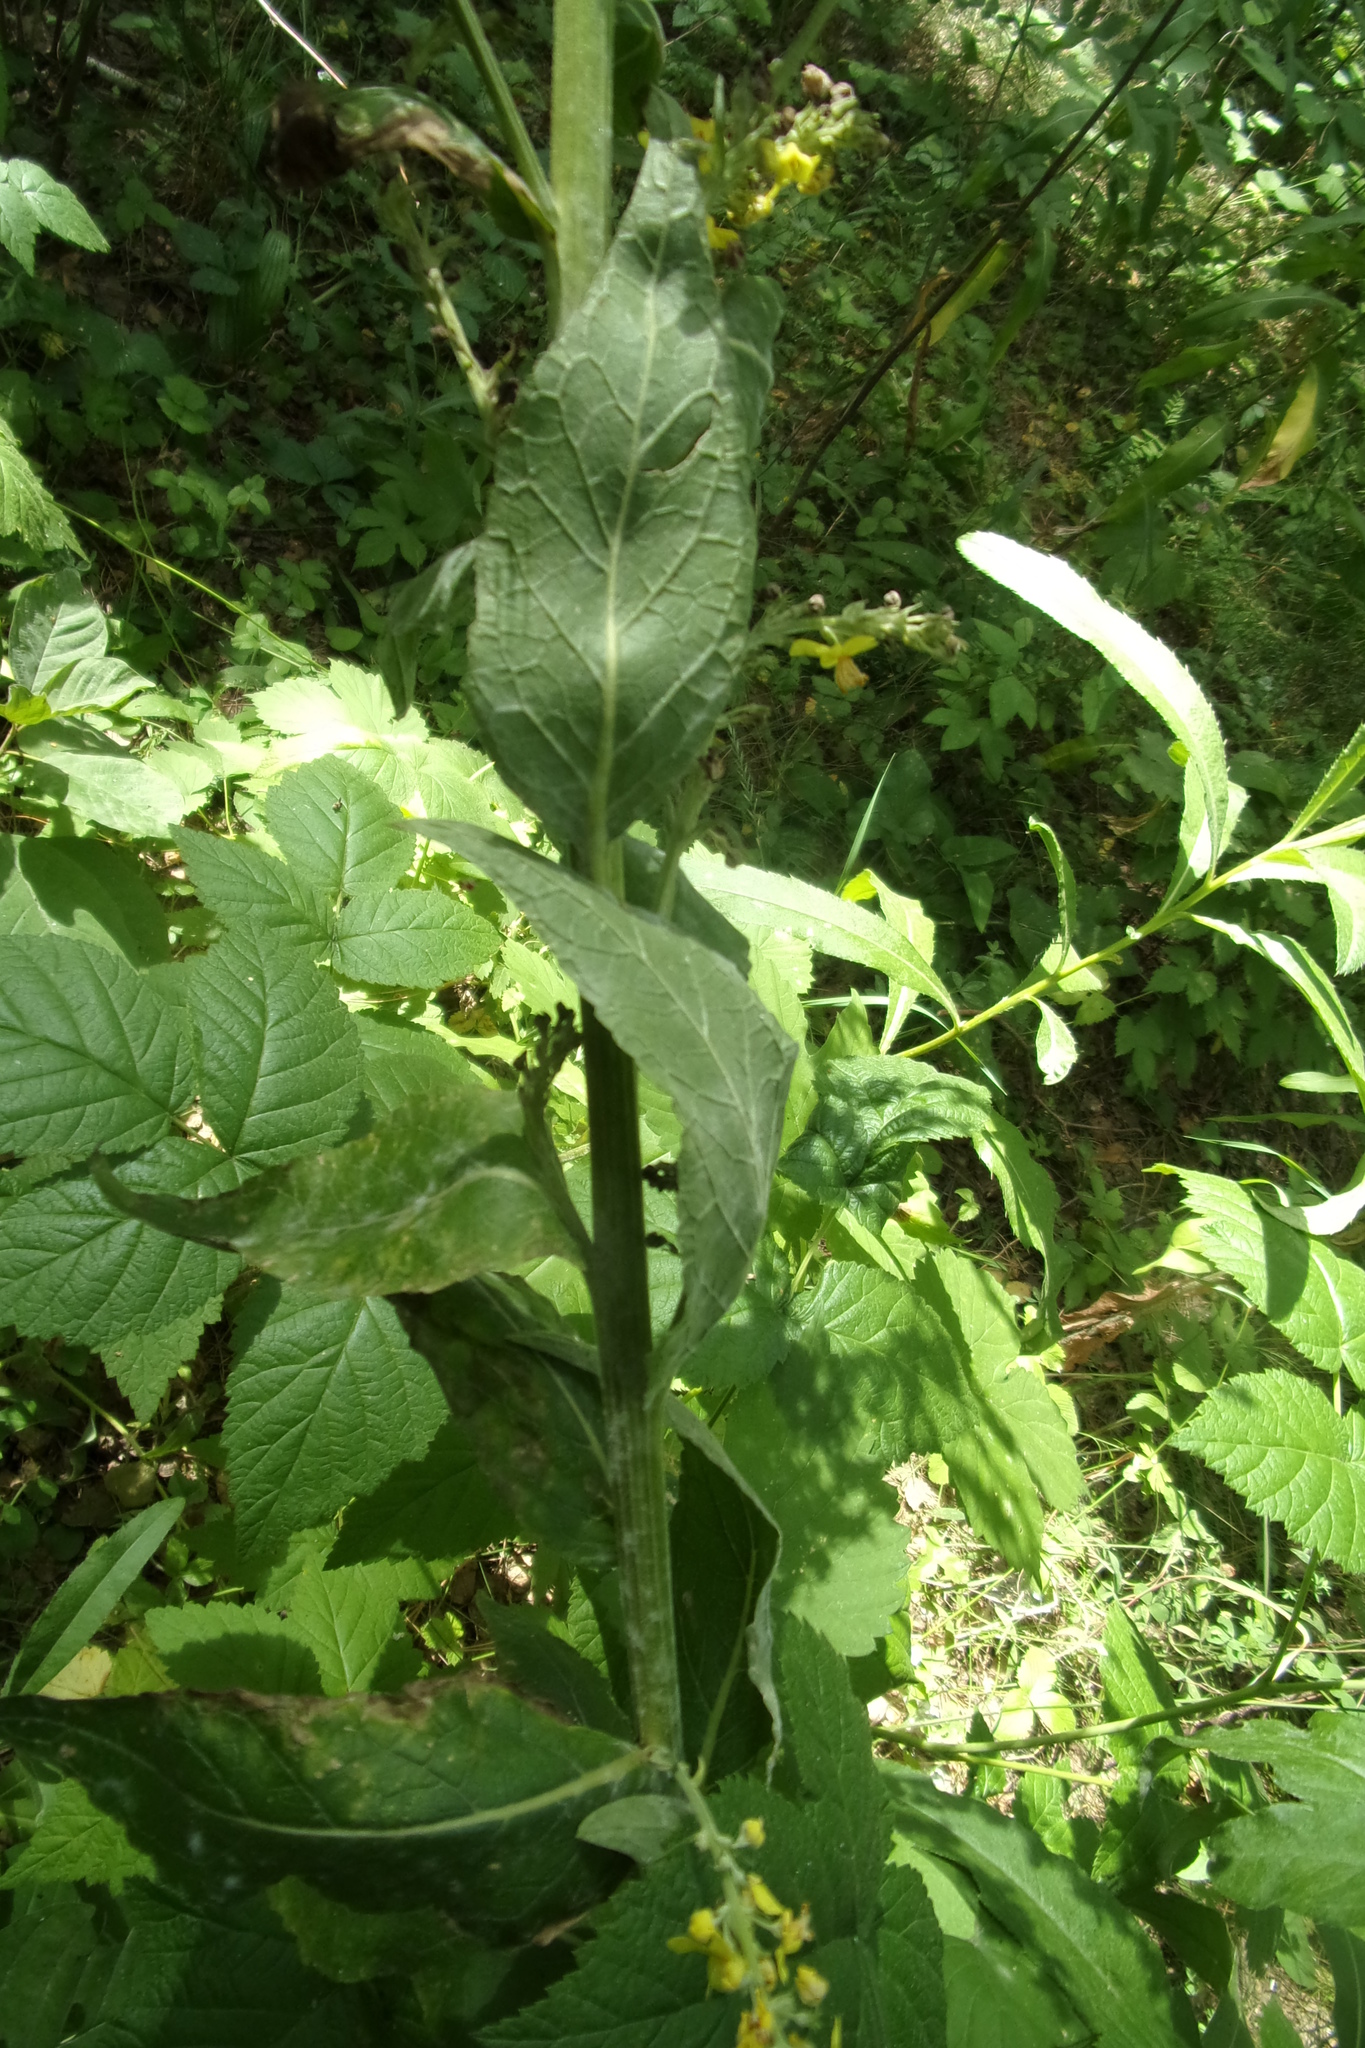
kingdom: Plantae
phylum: Tracheophyta
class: Magnoliopsida
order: Lamiales
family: Scrophulariaceae
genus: Verbascum
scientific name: Verbascum lychnitis
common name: White mullein
